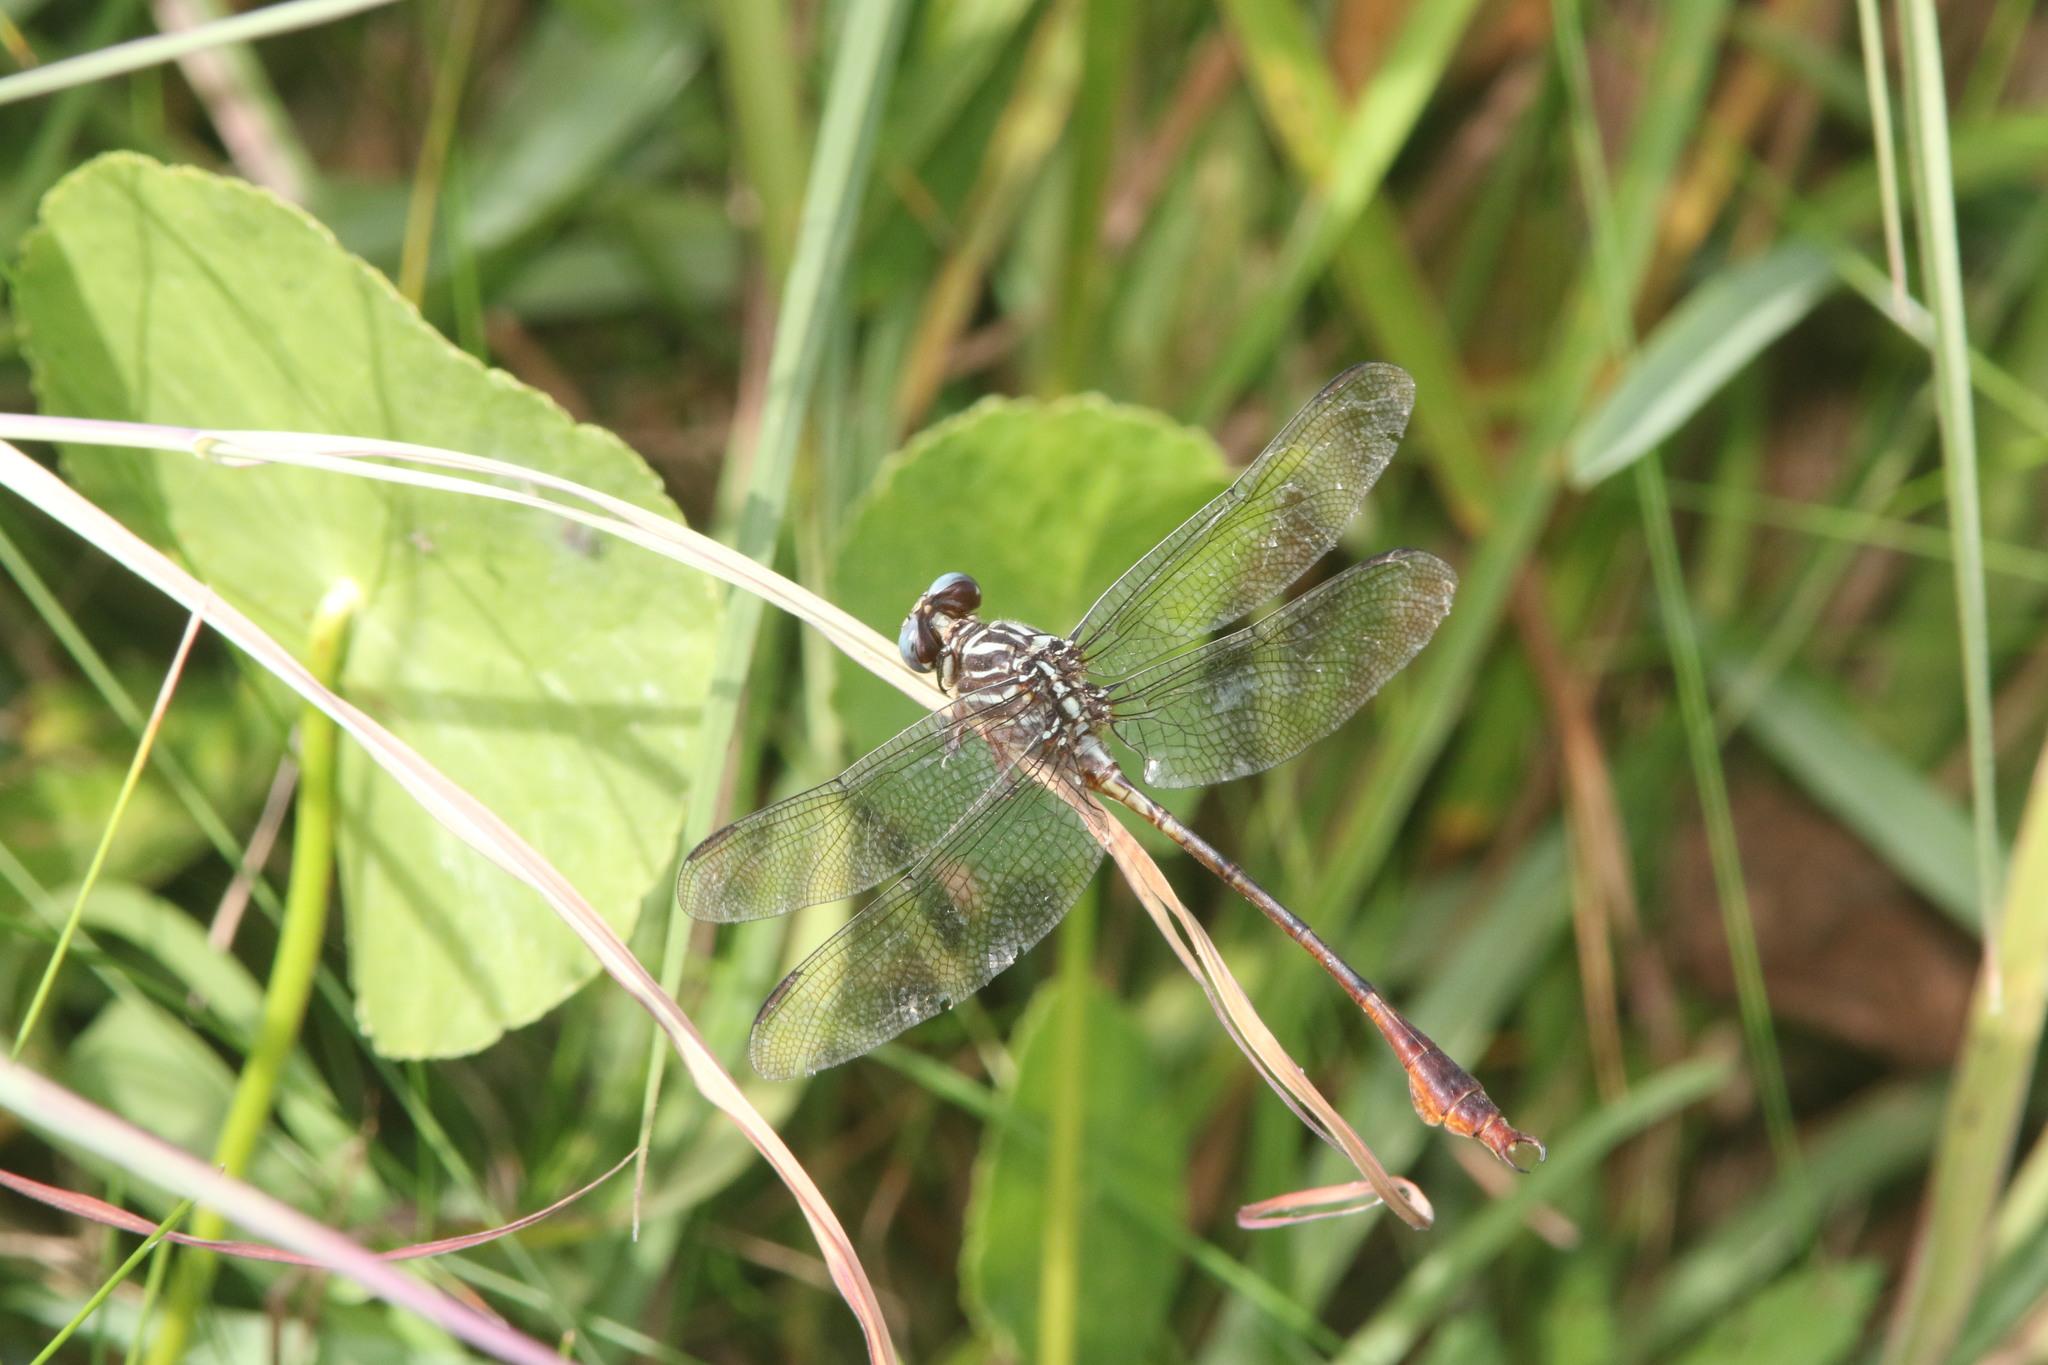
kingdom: Animalia
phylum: Arthropoda
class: Insecta
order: Odonata
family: Gomphidae
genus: Aphylla
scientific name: Aphylla angustifolia
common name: Broad-striped forceptail
